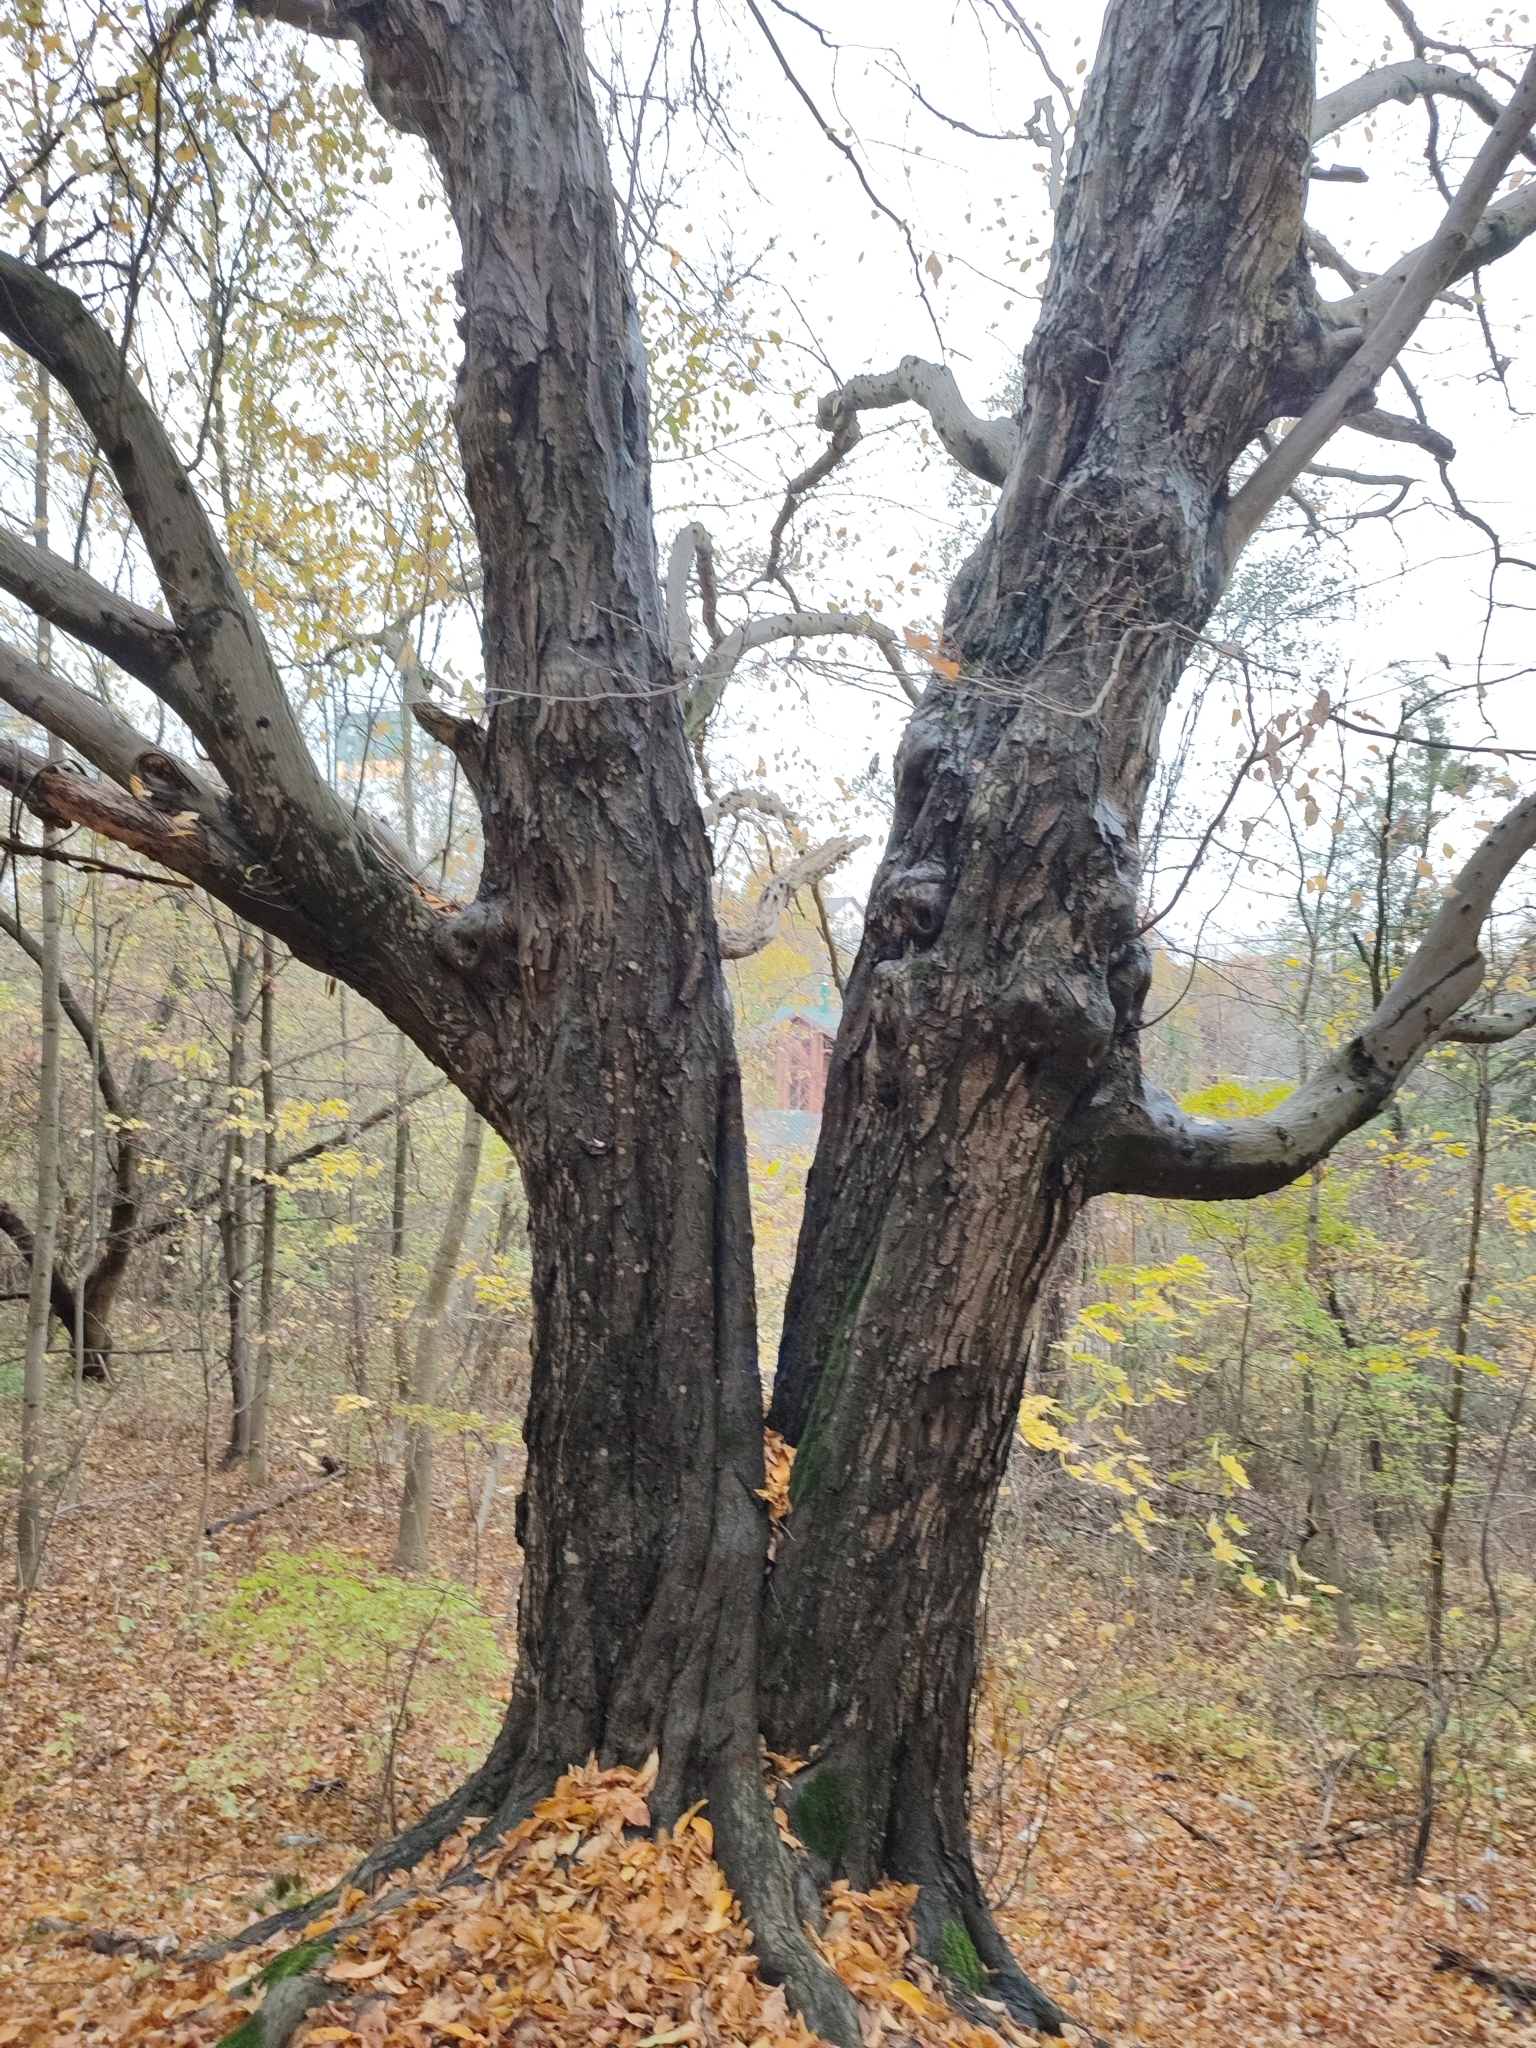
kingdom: Plantae
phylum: Tracheophyta
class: Magnoliopsida
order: Fagales
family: Betulaceae
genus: Carpinus
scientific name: Carpinus betulus
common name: Hornbeam
